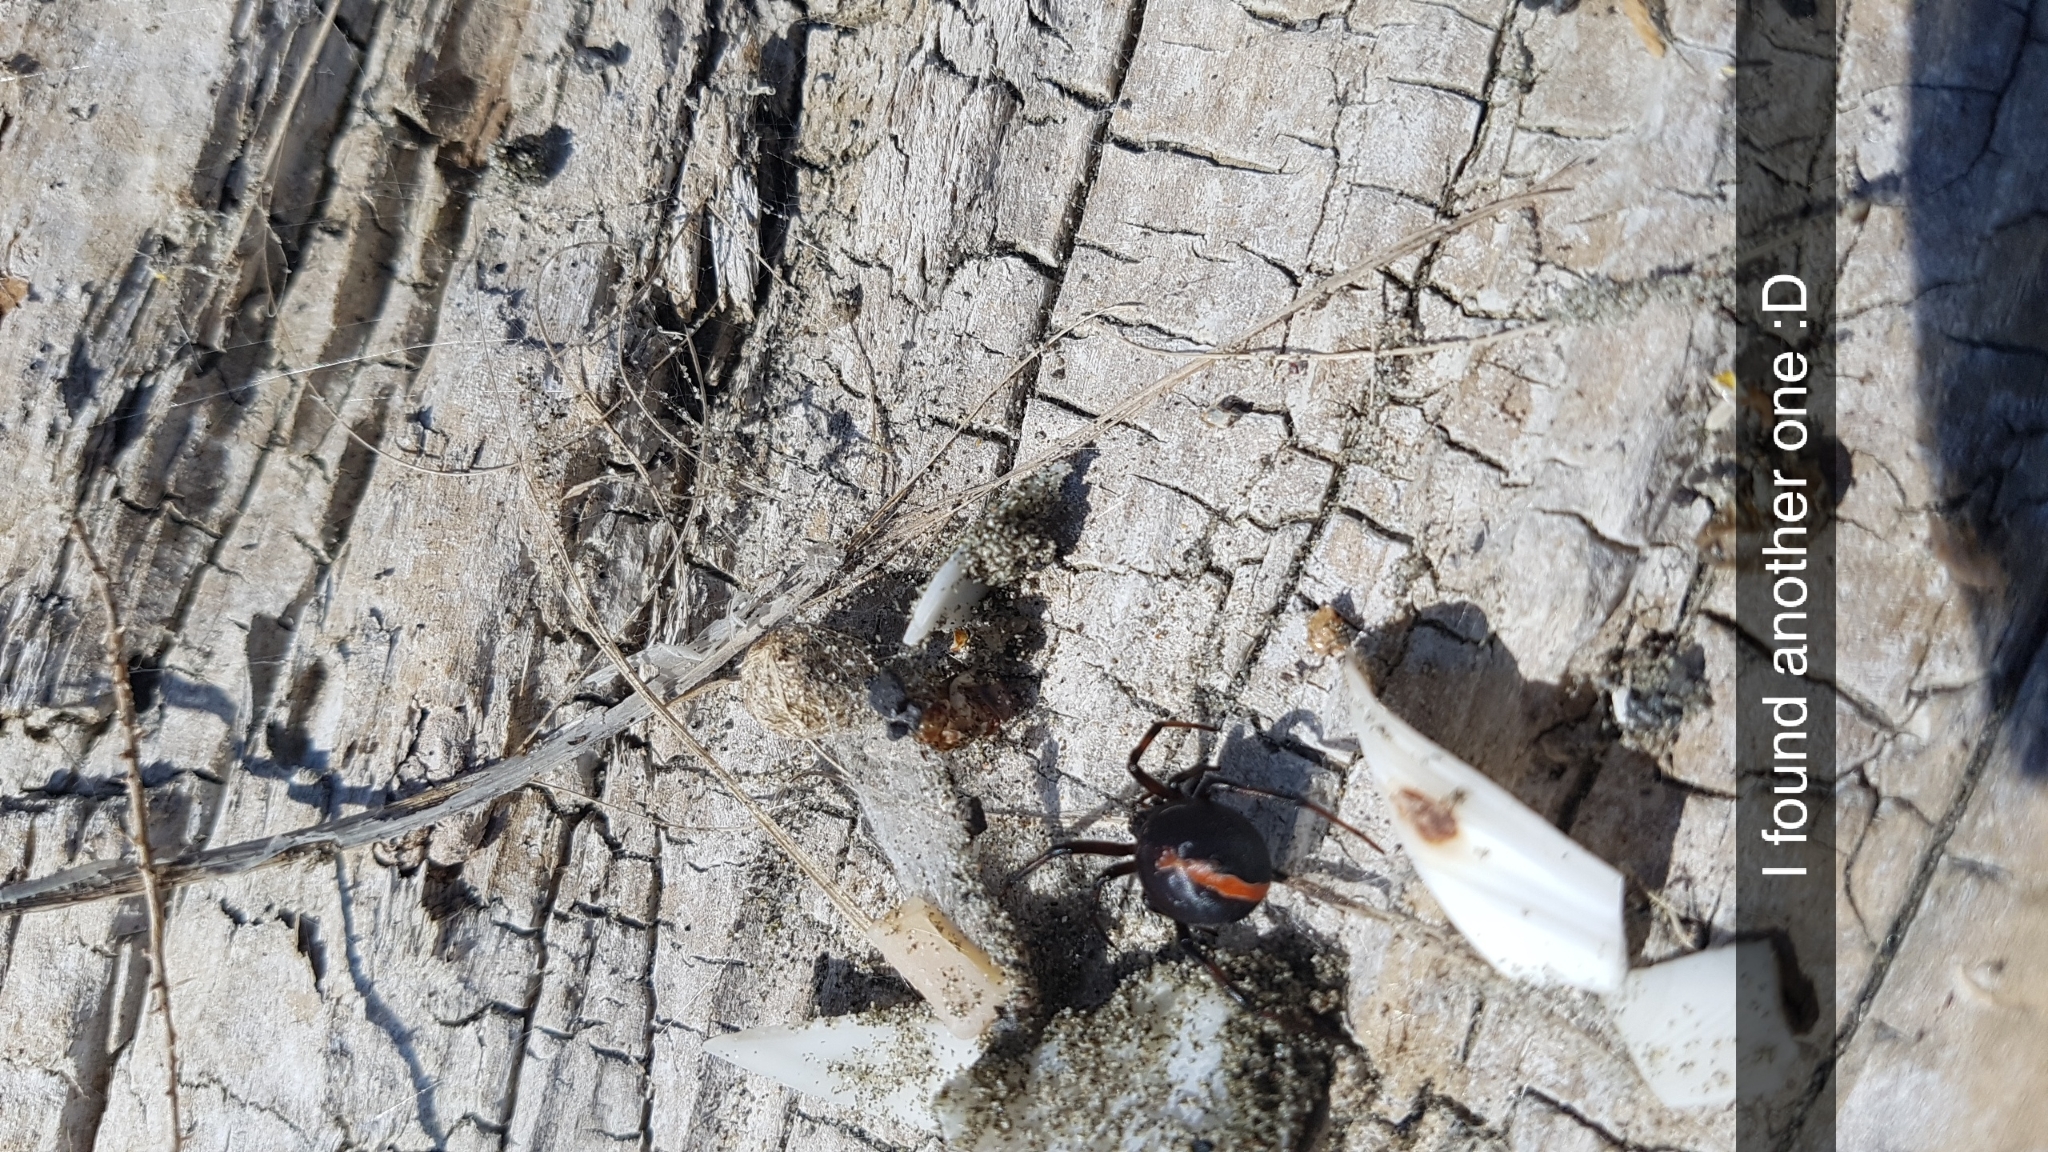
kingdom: Animalia
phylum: Arthropoda
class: Arachnida
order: Araneae
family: Theridiidae
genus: Latrodectus
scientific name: Latrodectus katipo
